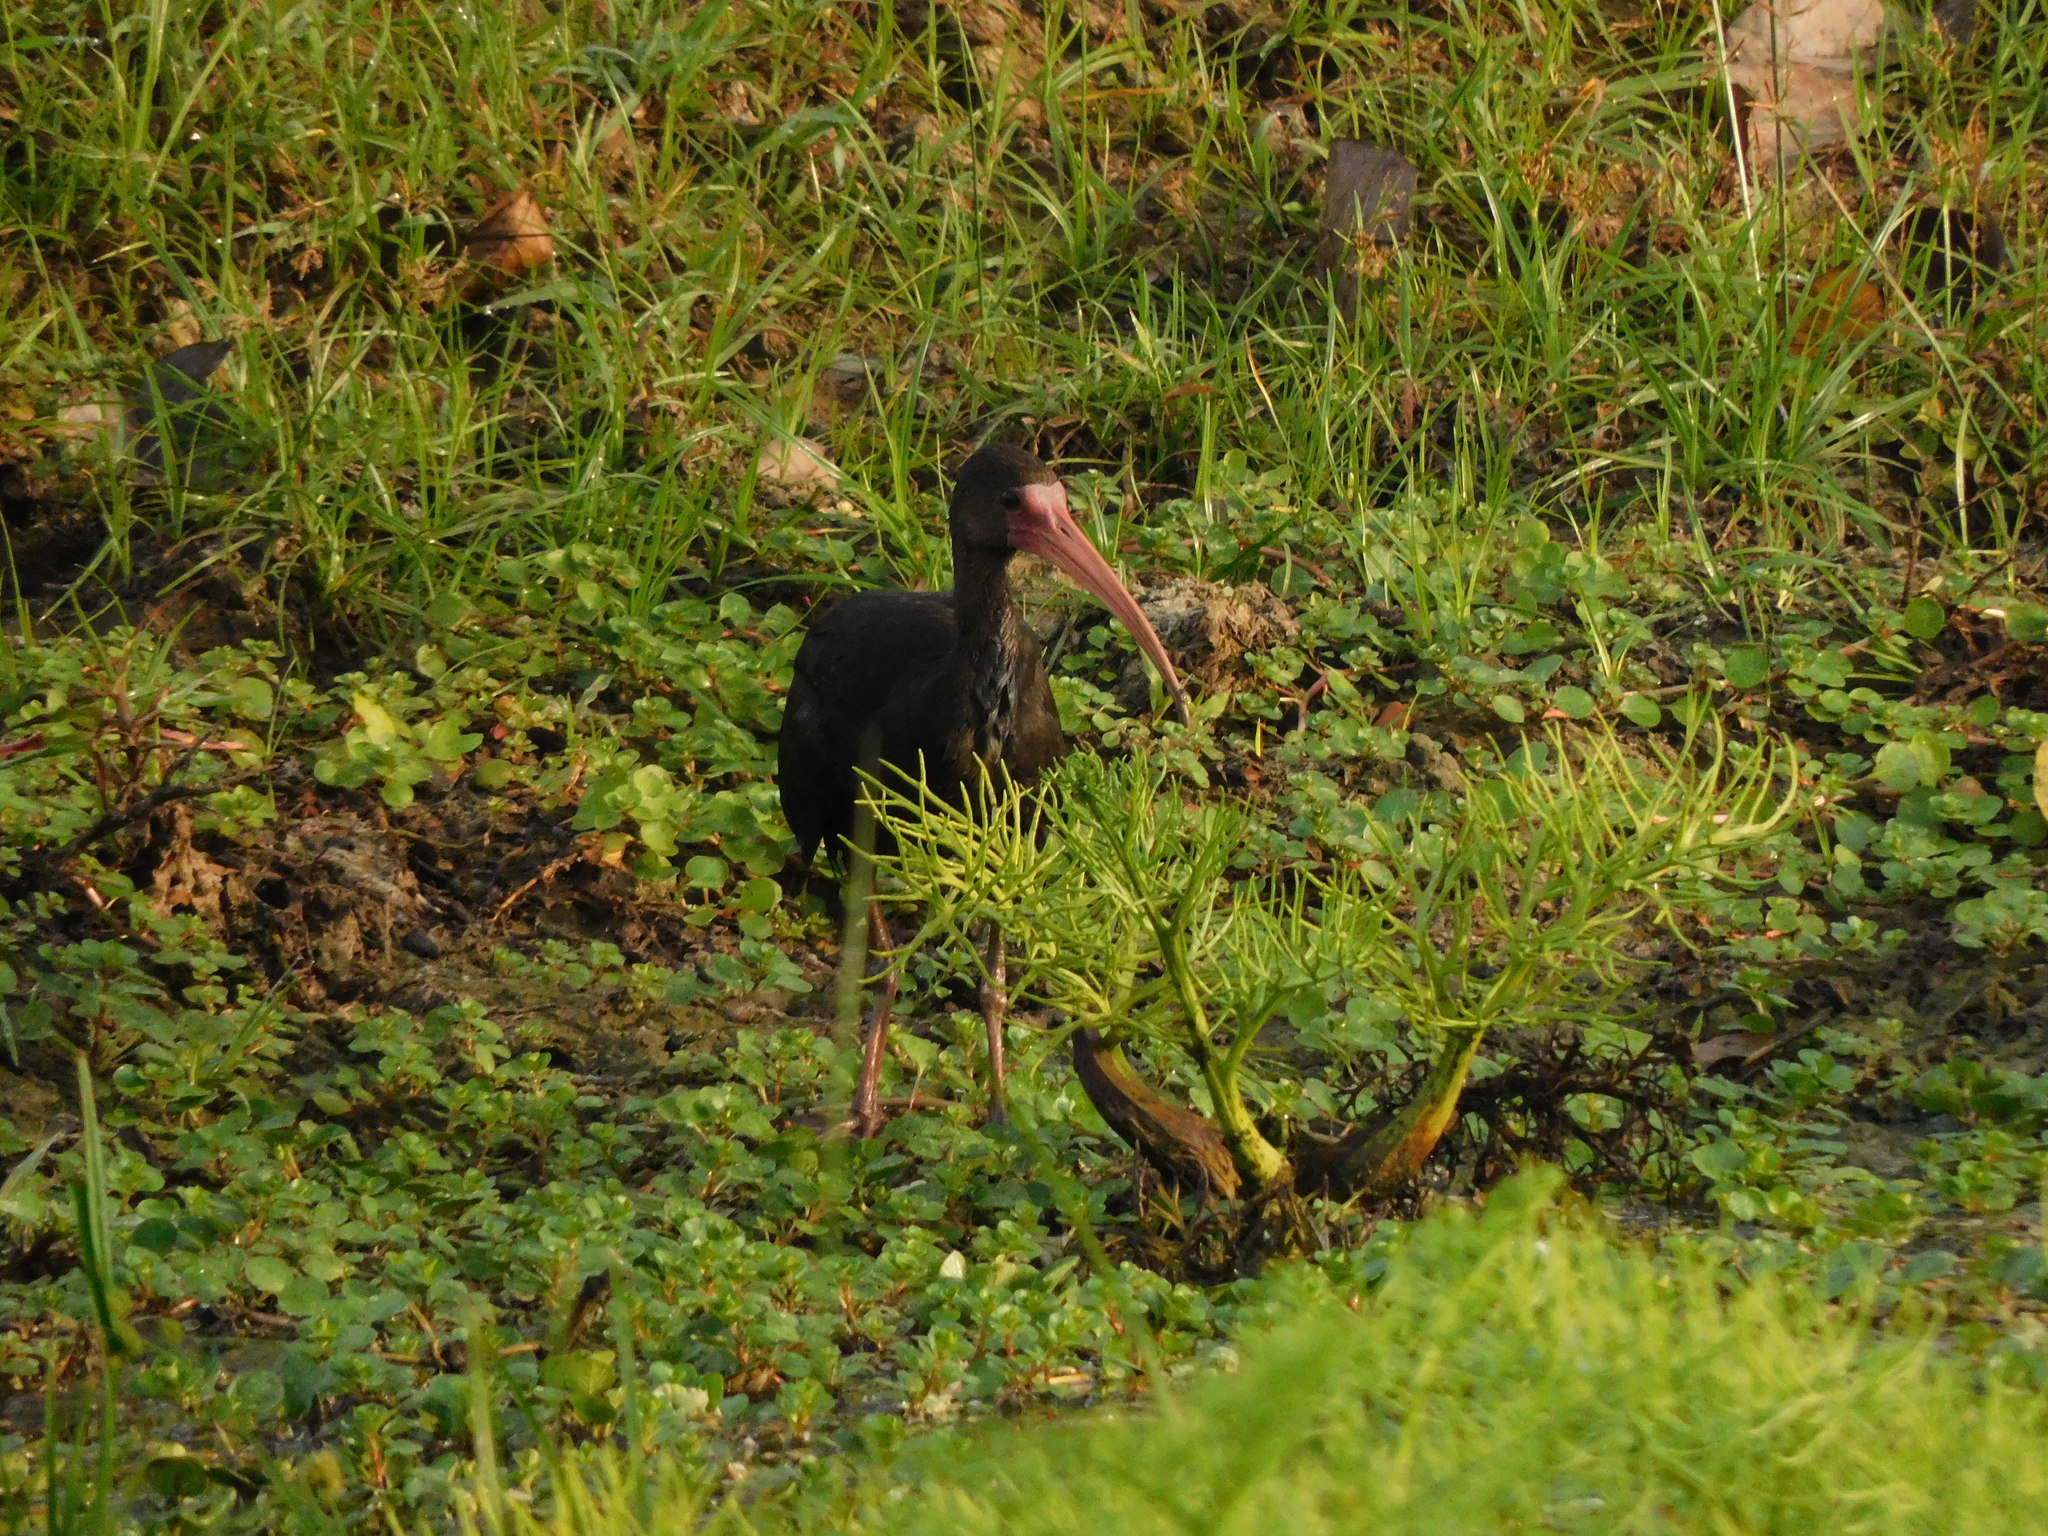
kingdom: Animalia
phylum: Chordata
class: Aves
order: Pelecaniformes
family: Threskiornithidae
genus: Phimosus
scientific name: Phimosus infuscatus
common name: Bare-faced ibis
